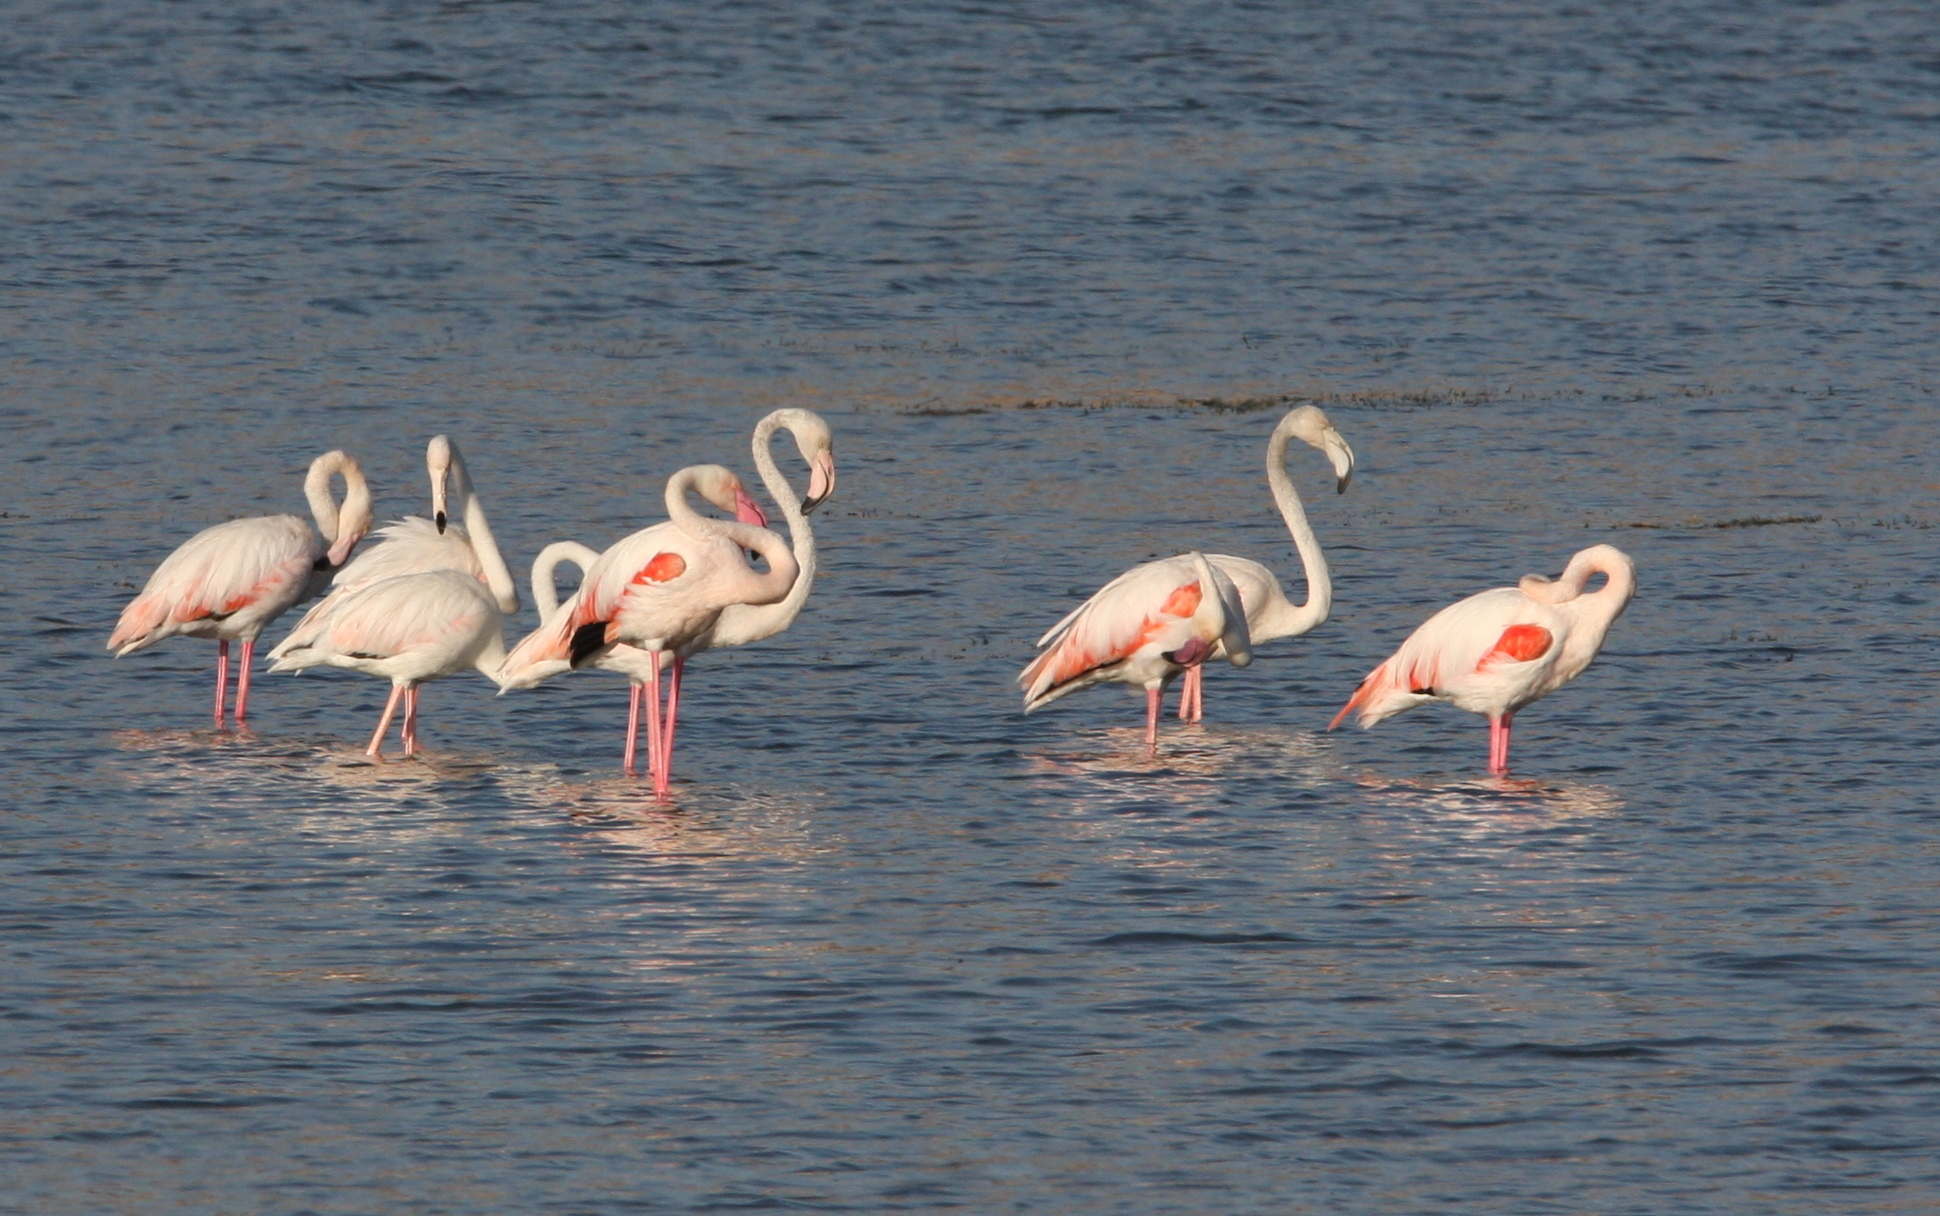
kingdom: Animalia
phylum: Chordata
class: Aves
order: Phoenicopteriformes
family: Phoenicopteridae
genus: Phoenicopterus
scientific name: Phoenicopterus roseus
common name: Greater flamingo
